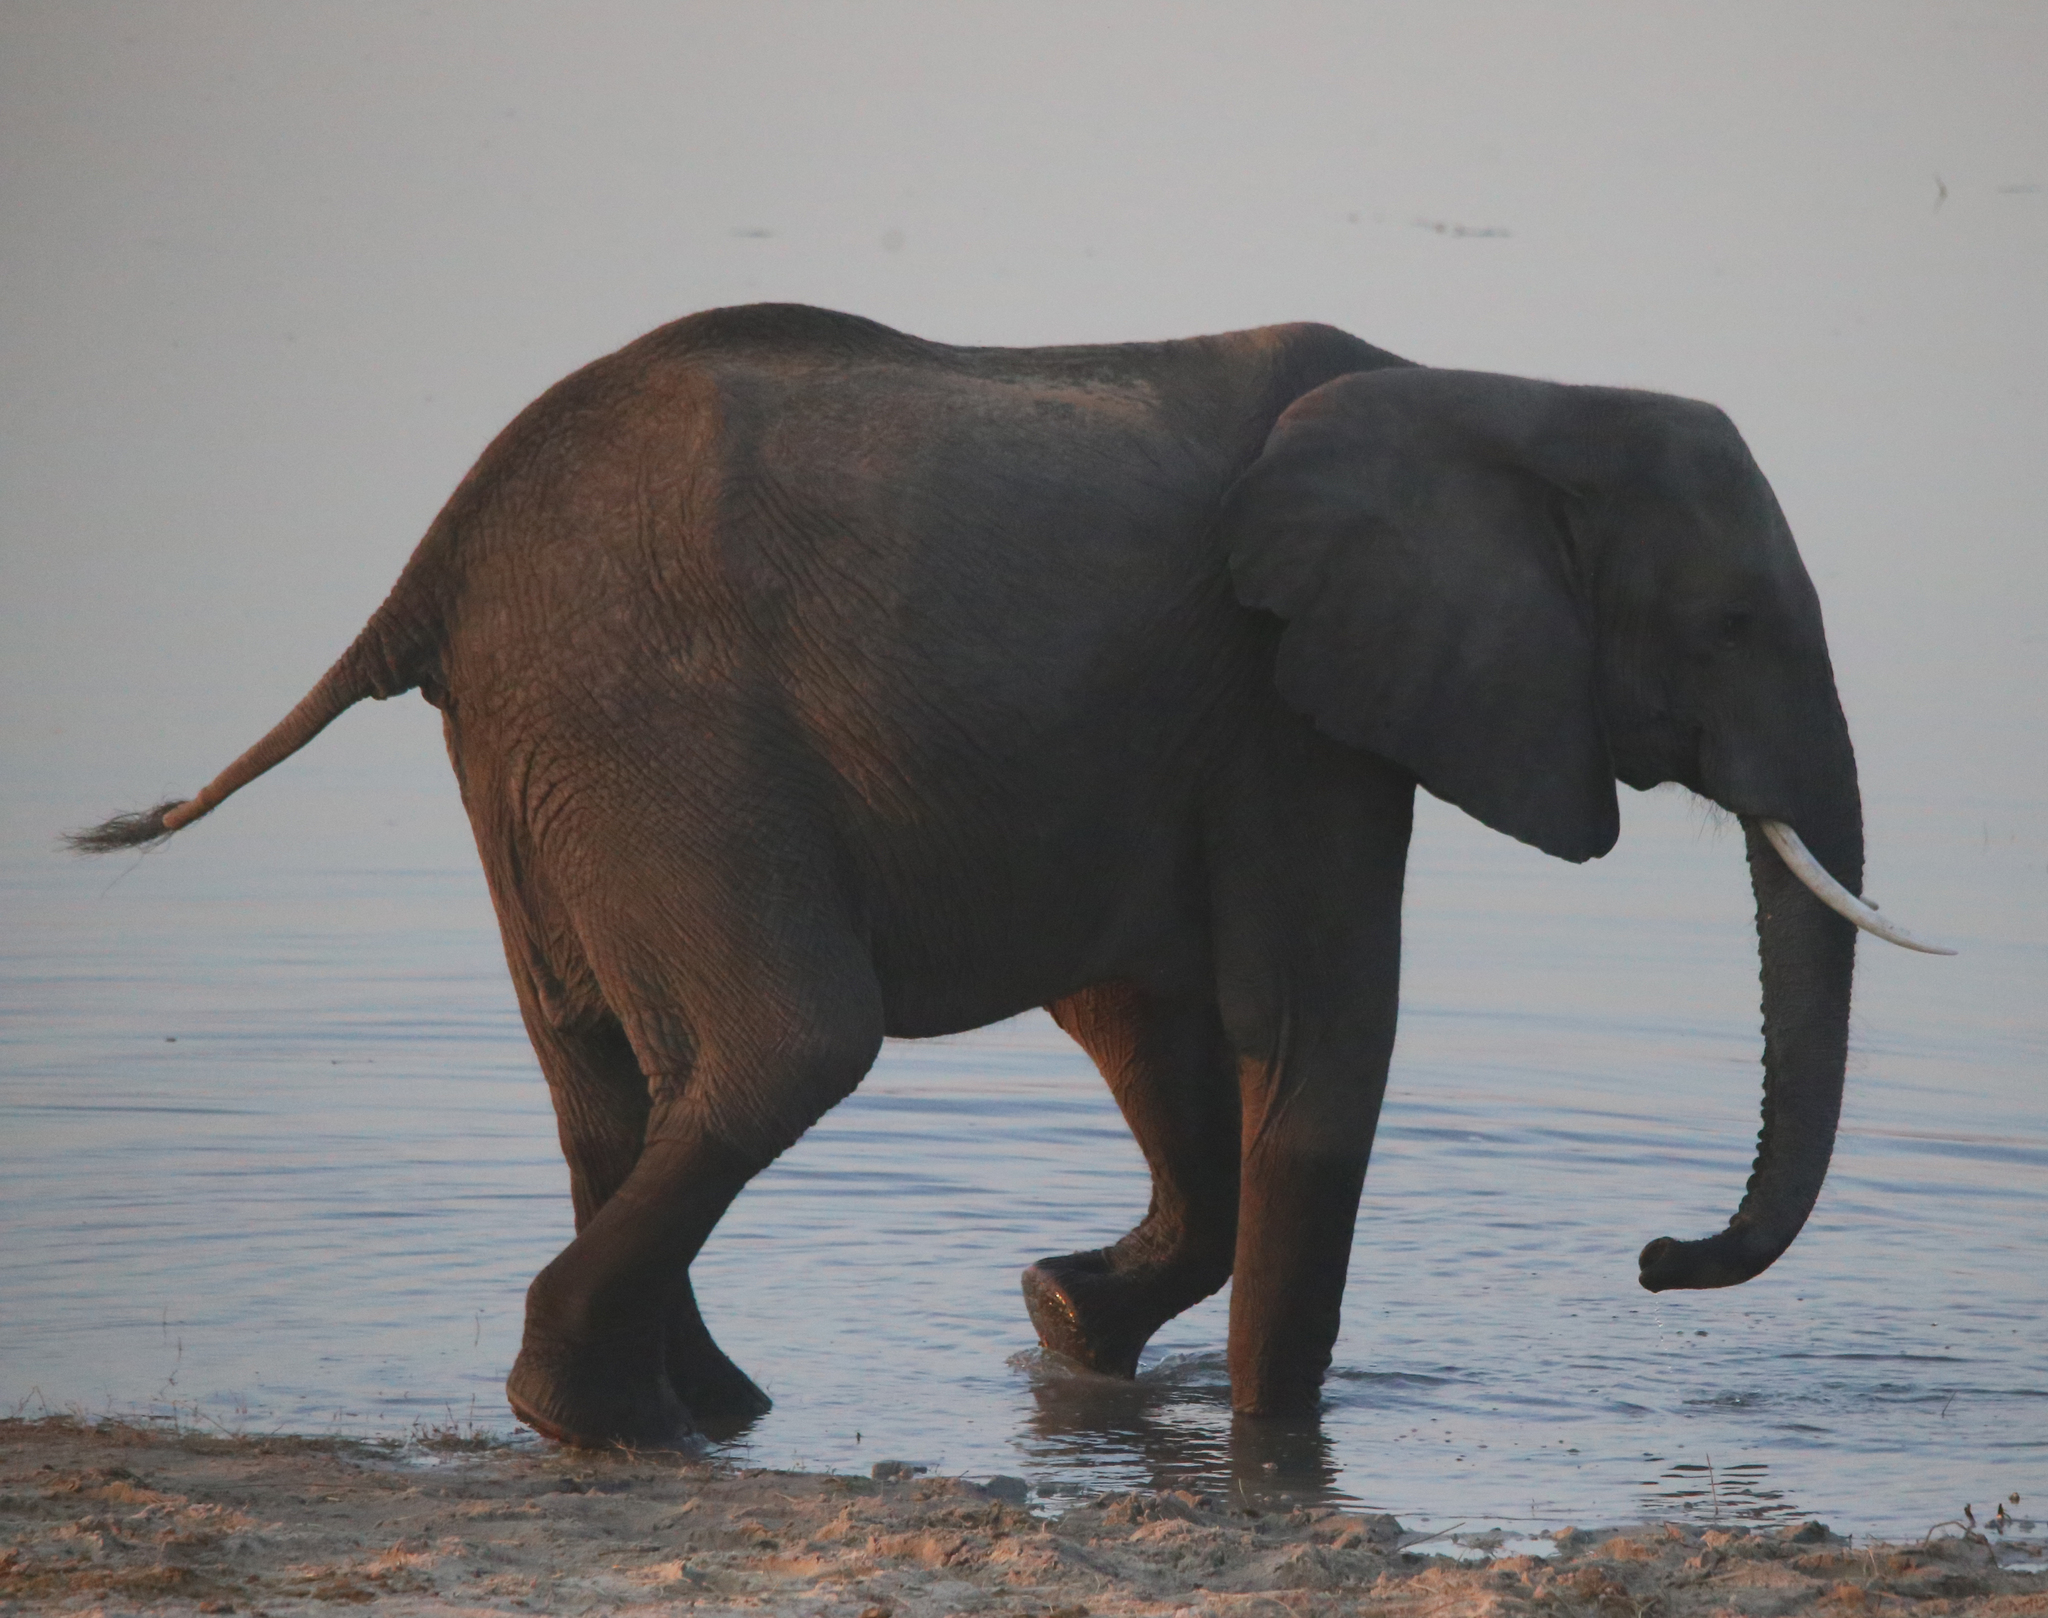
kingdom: Animalia
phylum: Chordata
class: Mammalia
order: Proboscidea
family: Elephantidae
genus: Loxodonta
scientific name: Loxodonta africana
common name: African elephant
